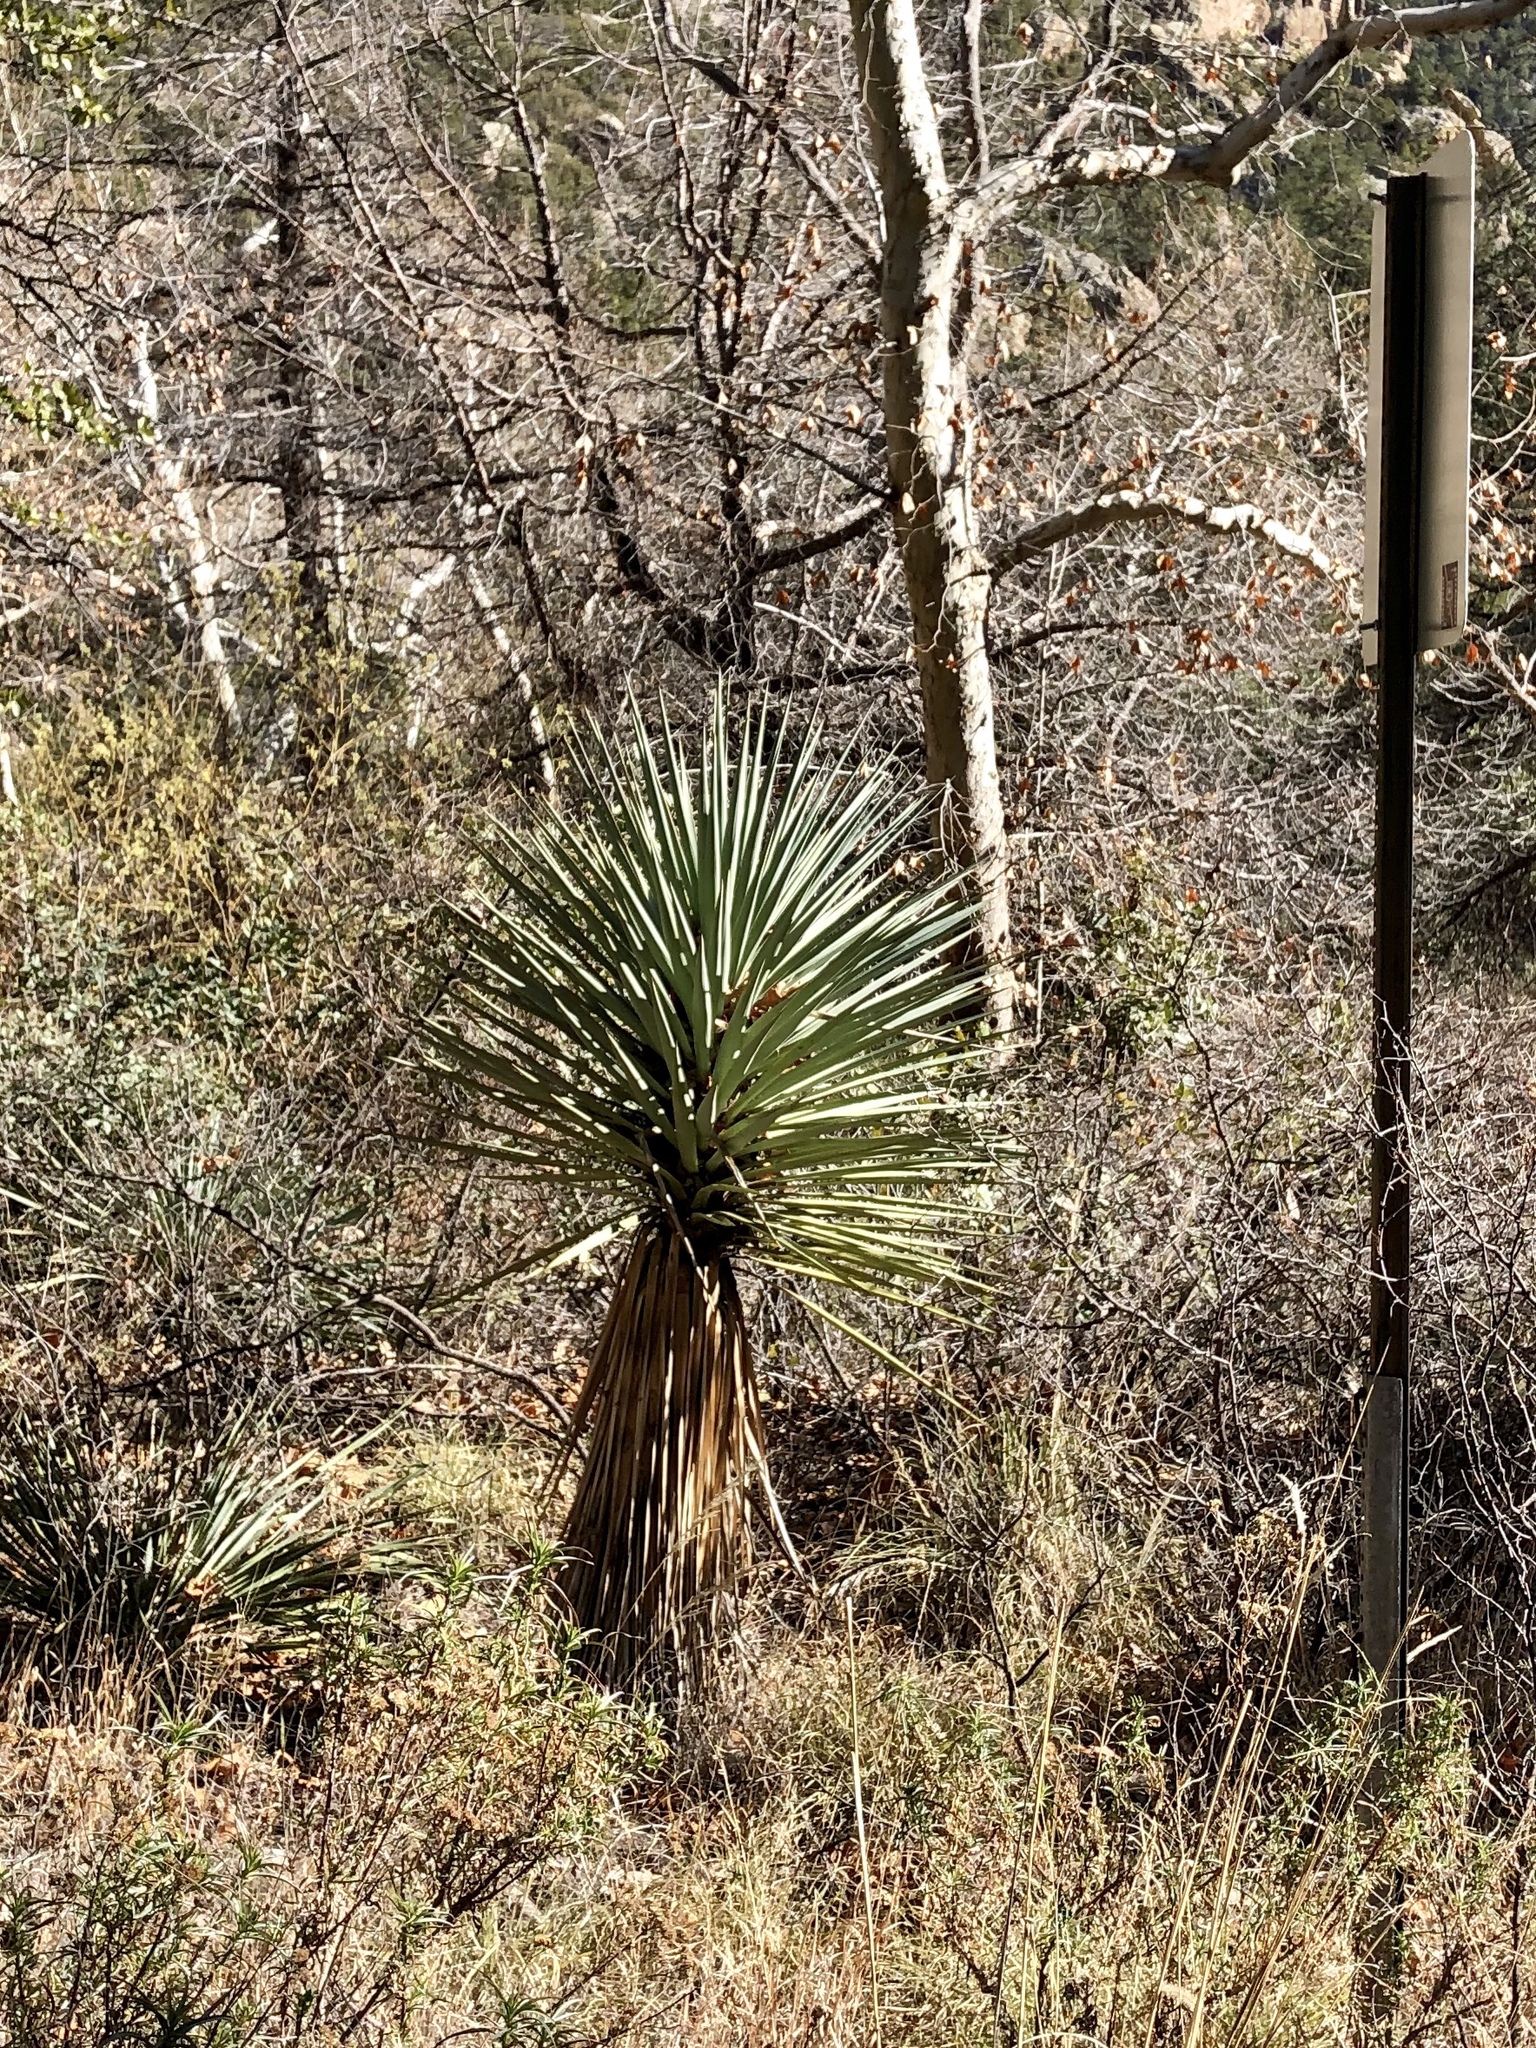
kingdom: Plantae
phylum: Tracheophyta
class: Liliopsida
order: Asparagales
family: Asparagaceae
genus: Yucca
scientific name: Yucca madrensis
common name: Hoary yucca
